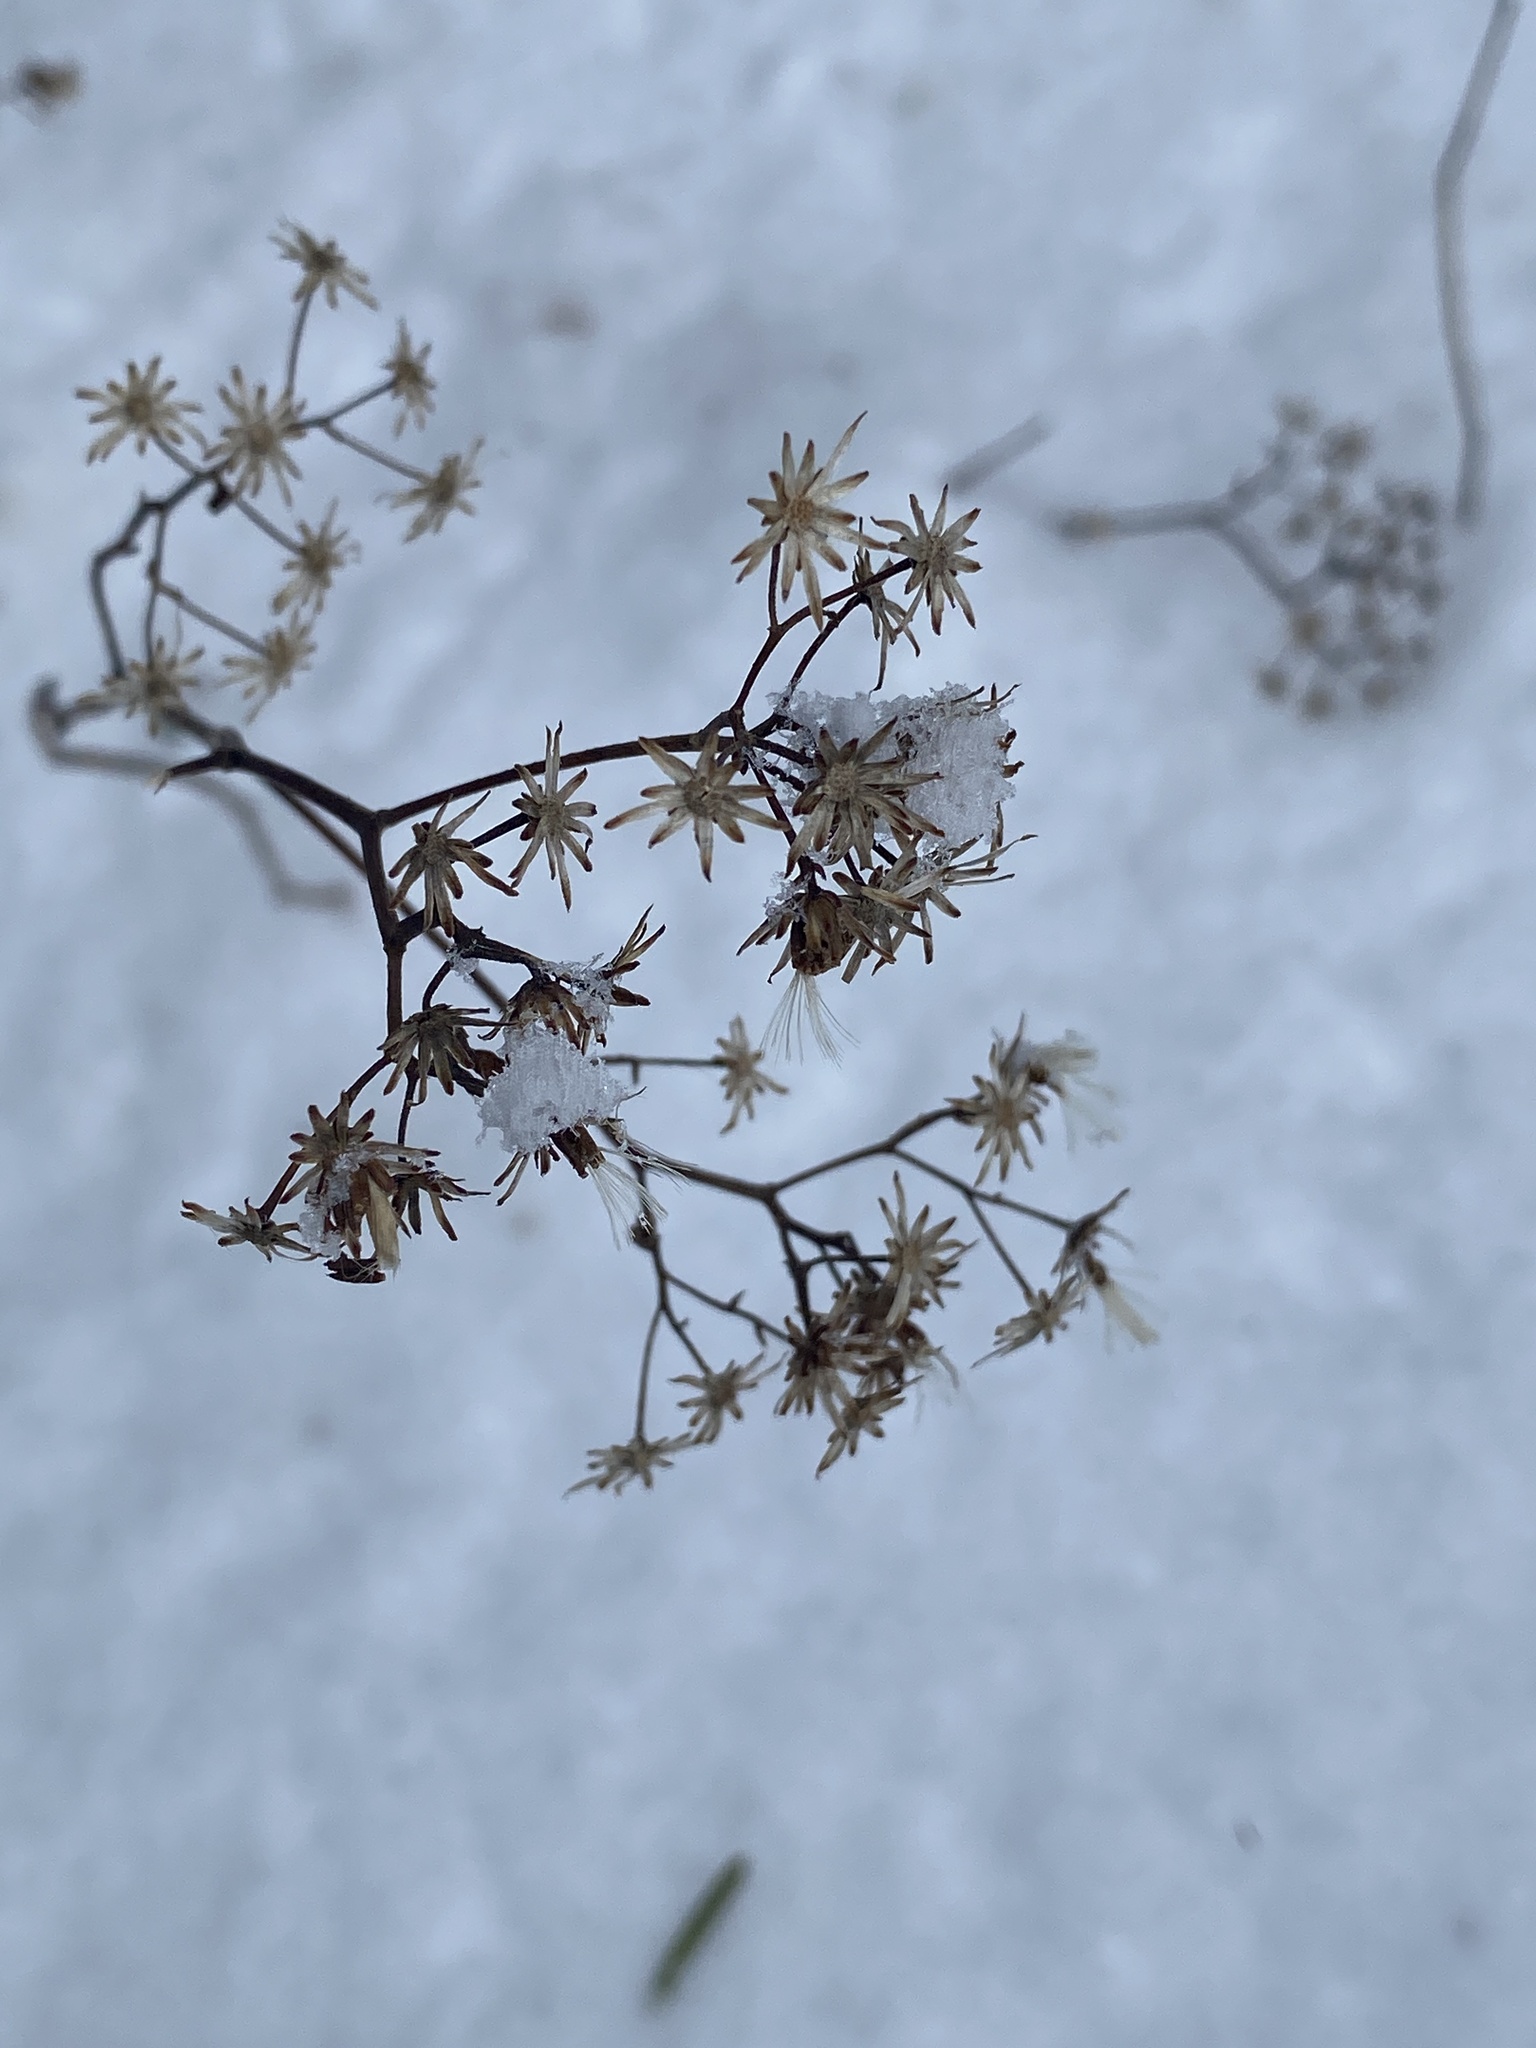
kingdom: Plantae
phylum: Tracheophyta
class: Magnoliopsida
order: Asterales
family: Asteraceae
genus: Eurybia
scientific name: Eurybia divaricata
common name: White wood aster
